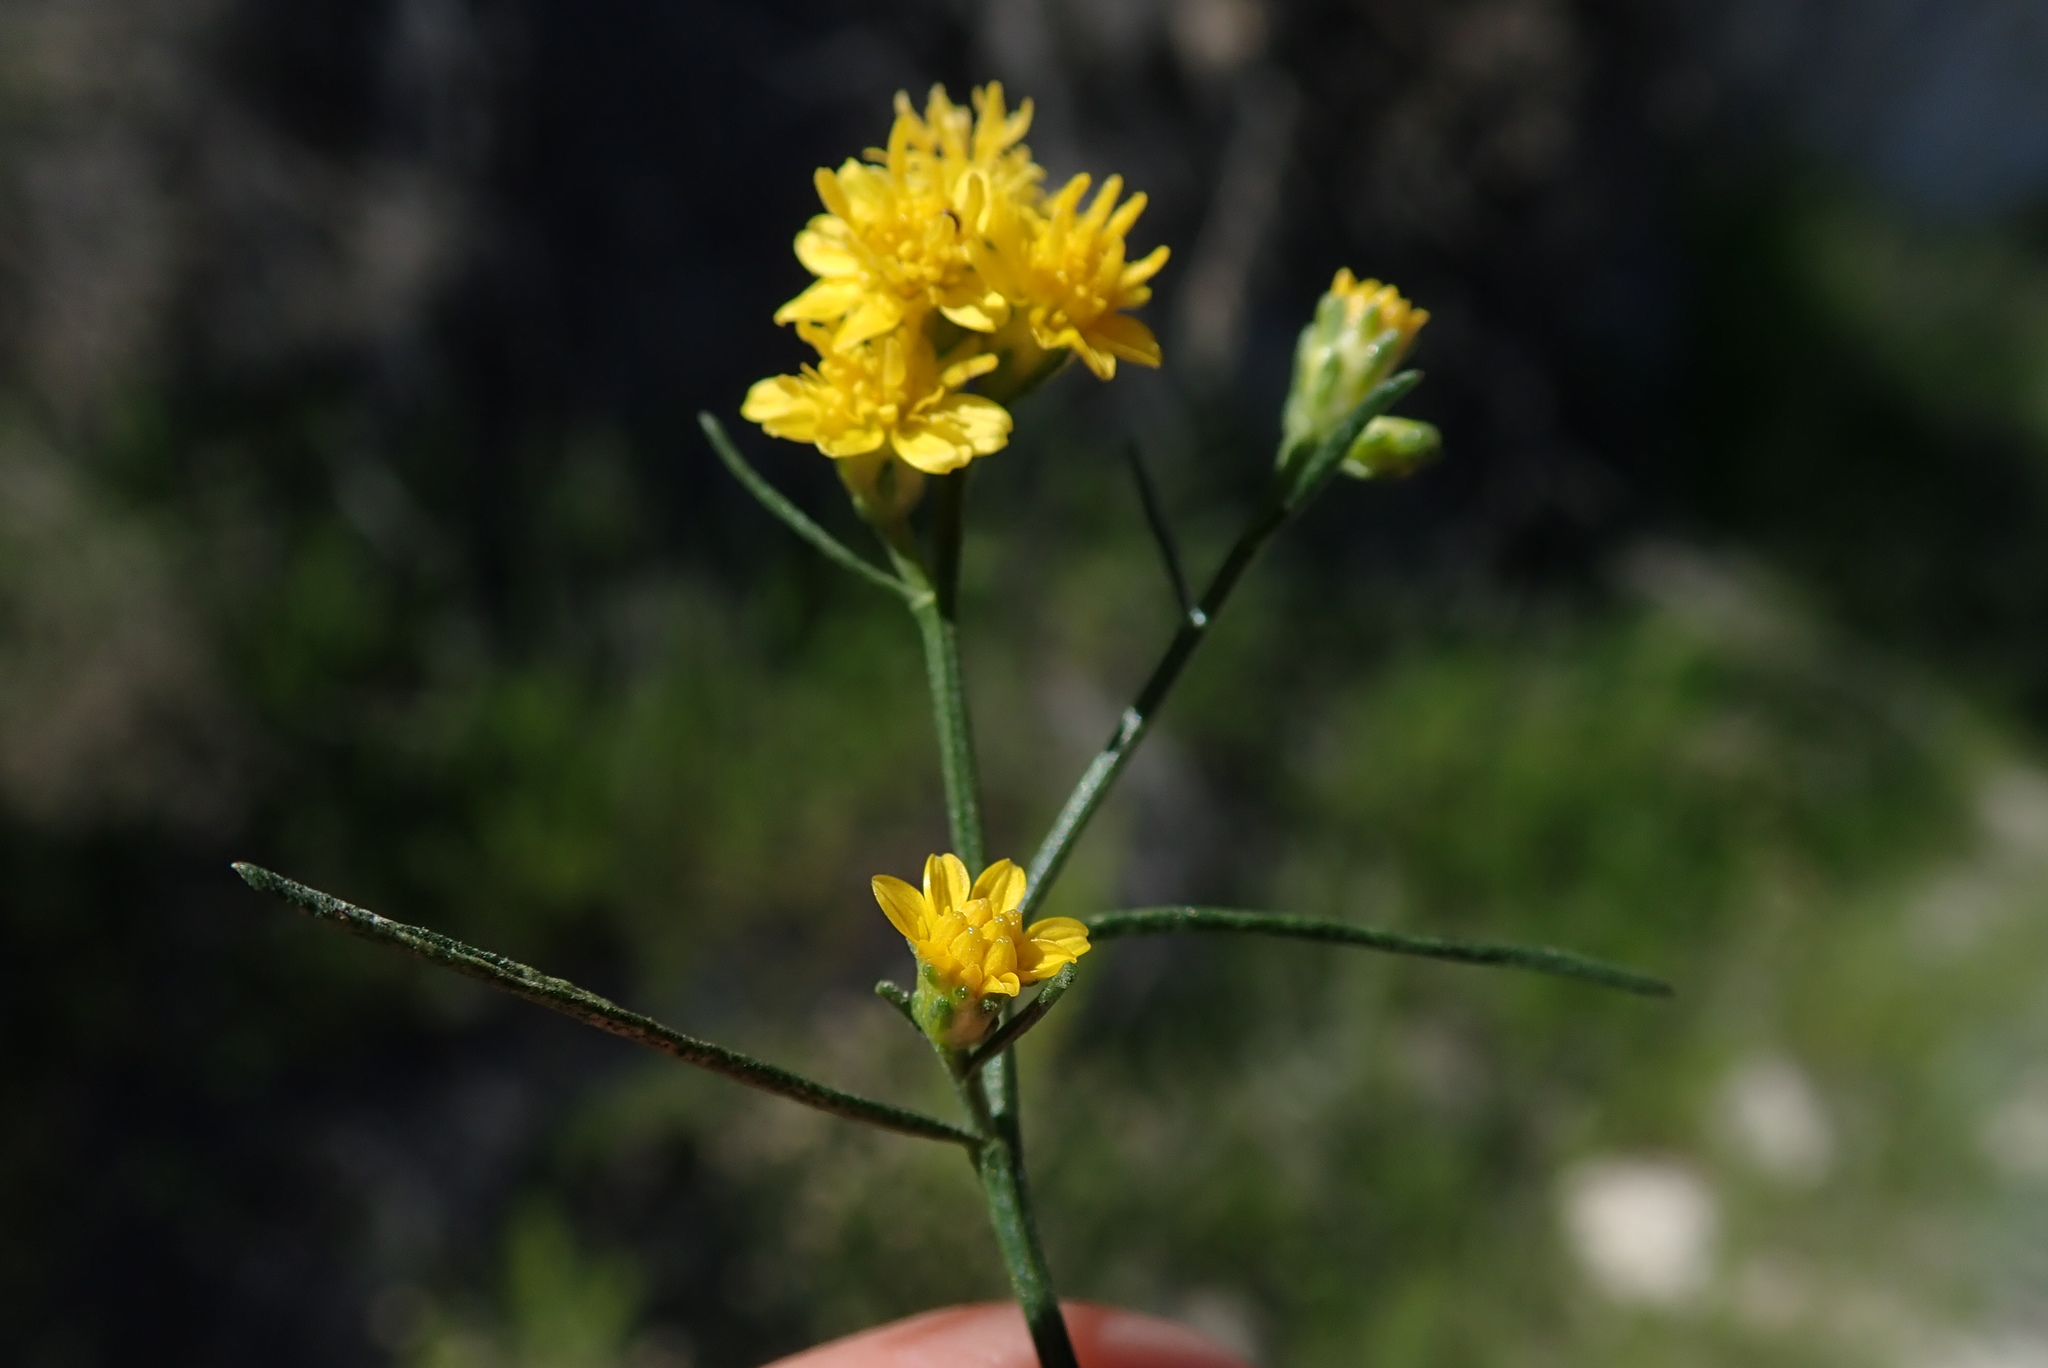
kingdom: Plantae
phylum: Tracheophyta
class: Magnoliopsida
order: Asterales
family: Asteraceae
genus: Gutierrezia
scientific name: Gutierrezia sarothrae
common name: Broom snakeweed
